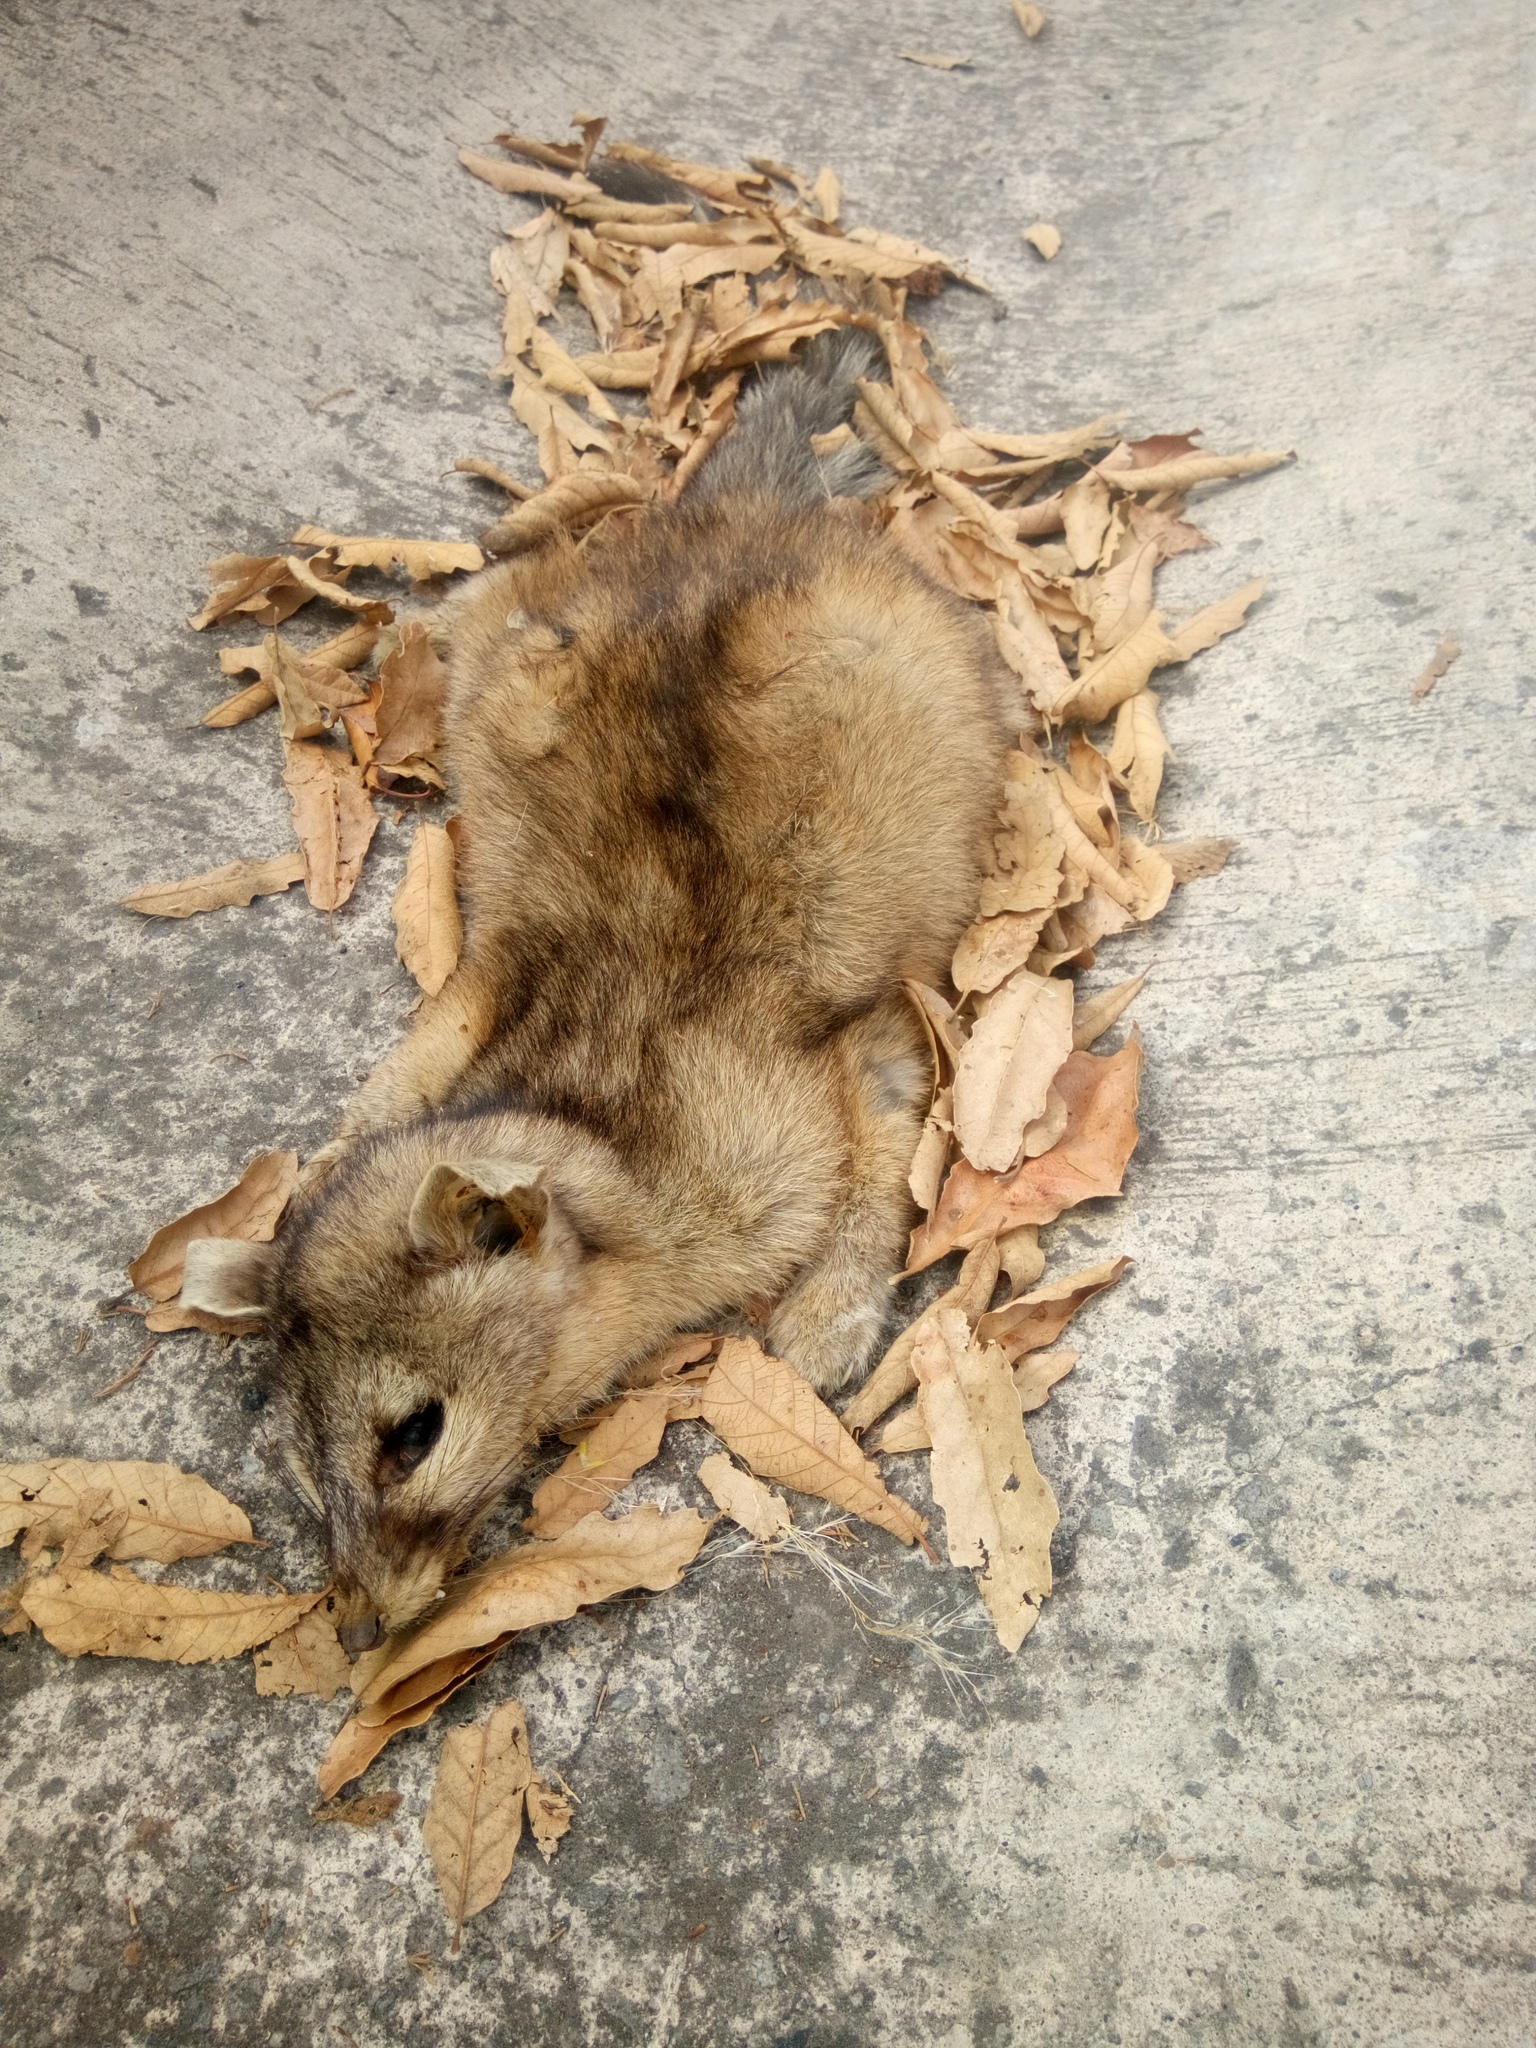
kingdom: Animalia
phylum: Chordata
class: Mammalia
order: Carnivora
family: Procyonidae
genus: Bassariscus
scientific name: Bassariscus astutus
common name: Ringtail
